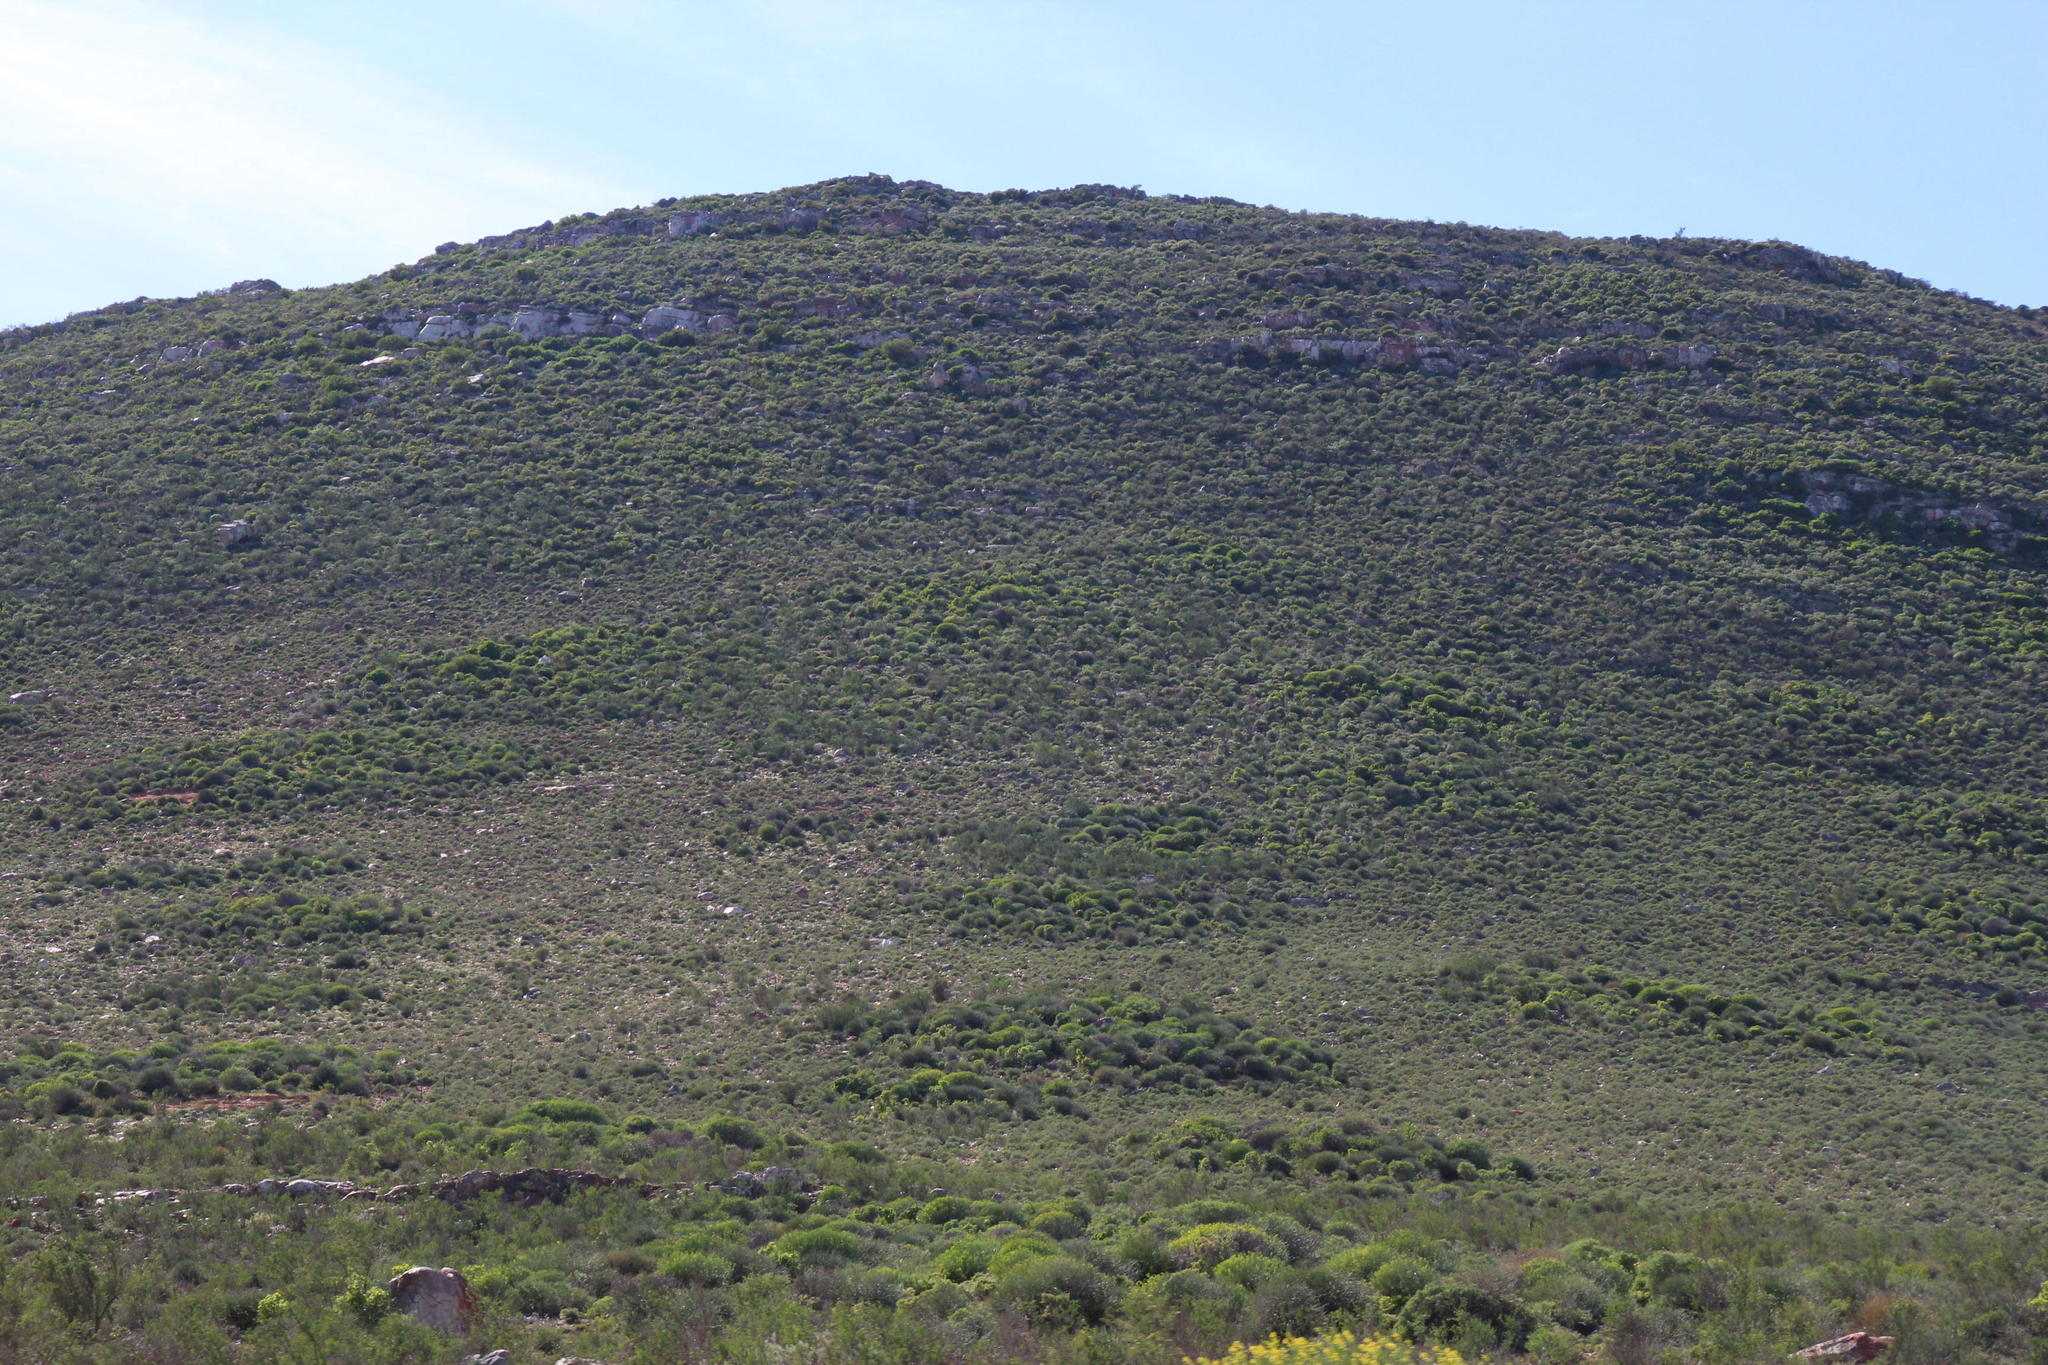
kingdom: Animalia
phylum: Arthropoda
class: Insecta
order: Blattodea
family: Hodotermitidae
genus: Microhodotermes
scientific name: Microhodotermes viator
